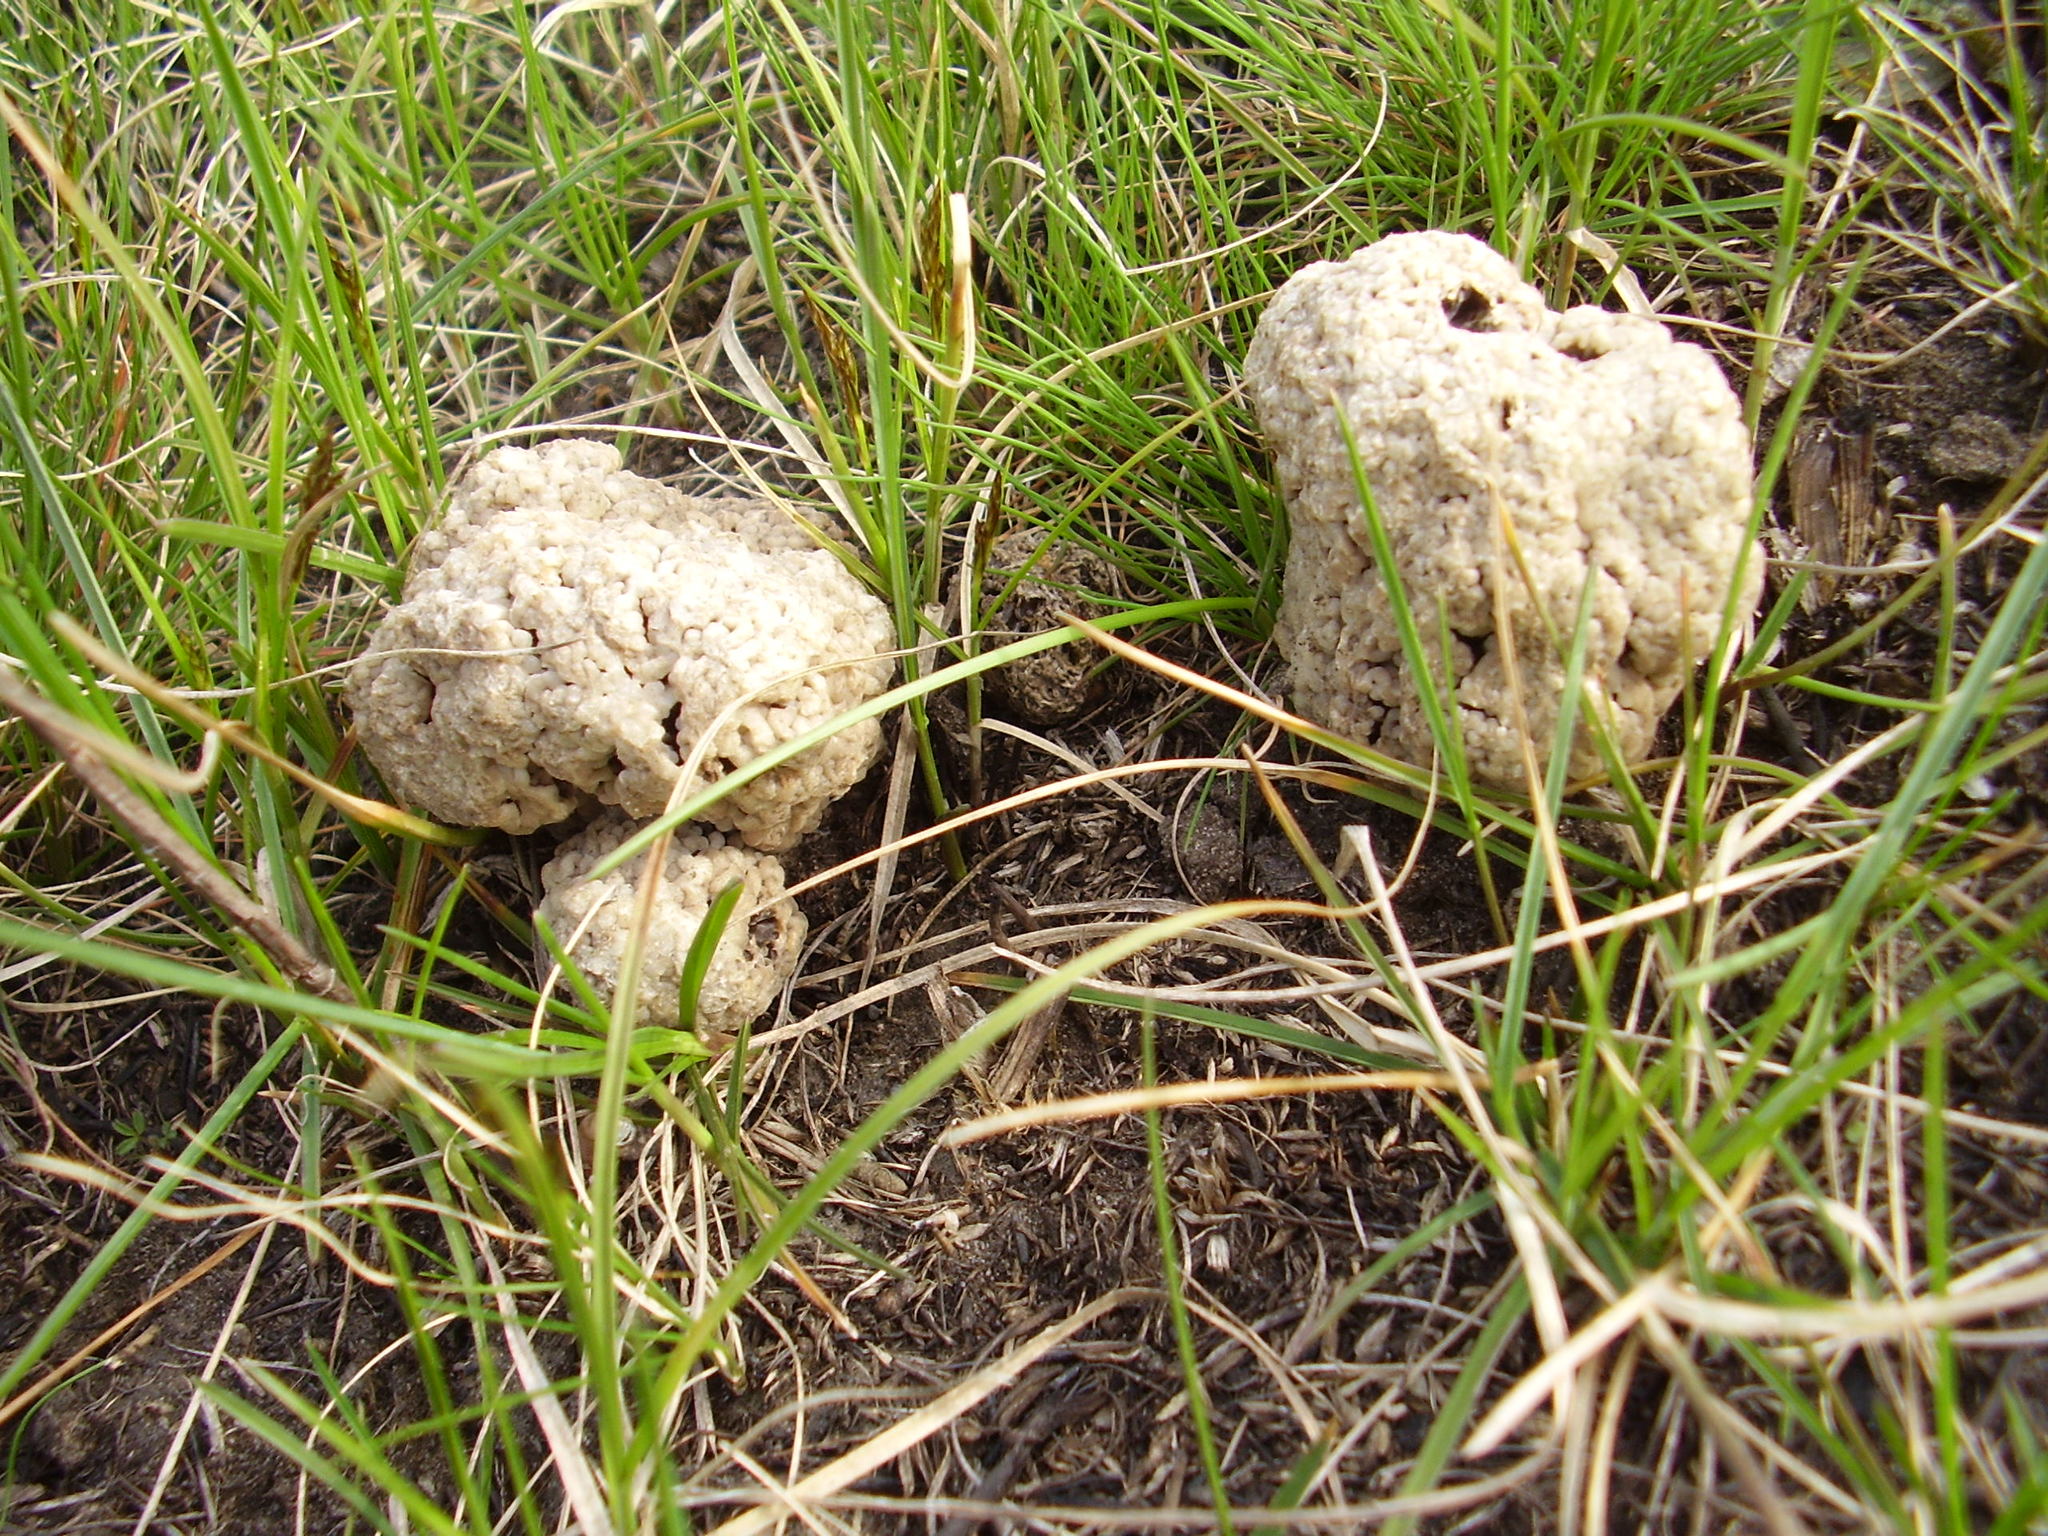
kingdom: Fungi
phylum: Ascomycota
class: Pezizomycetes
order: Pezizales
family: Morchellaceae
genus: Morchella
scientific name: Morchella steppicola
